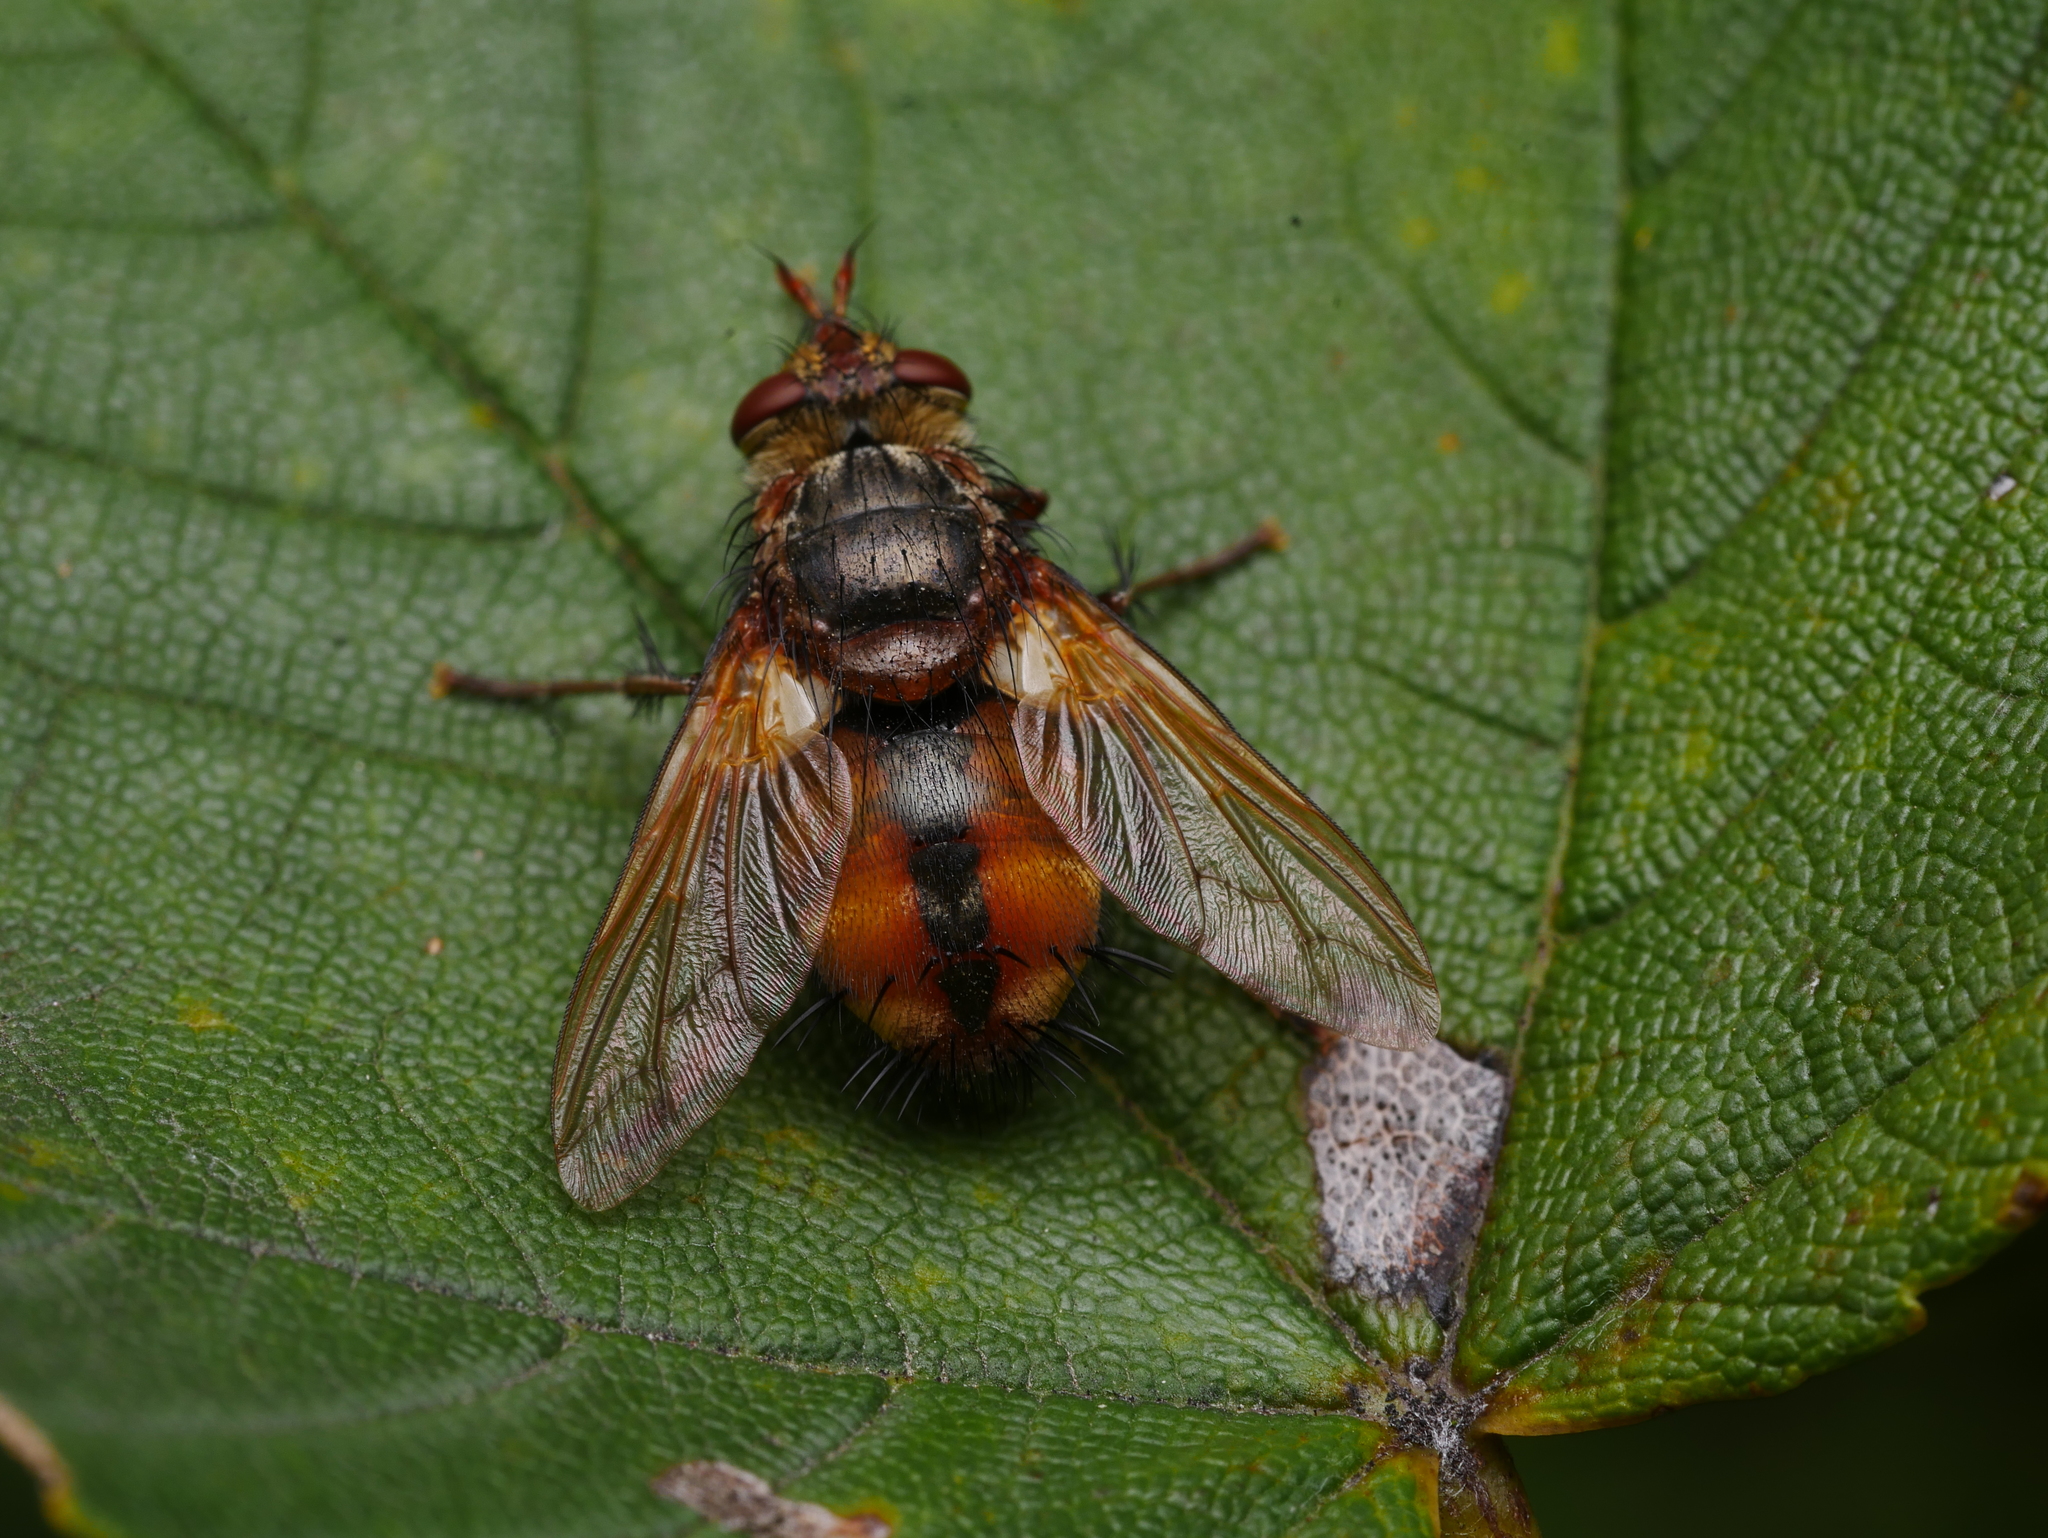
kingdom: Animalia
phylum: Arthropoda
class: Insecta
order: Diptera
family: Tachinidae
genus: Tachina
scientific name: Tachina fera
